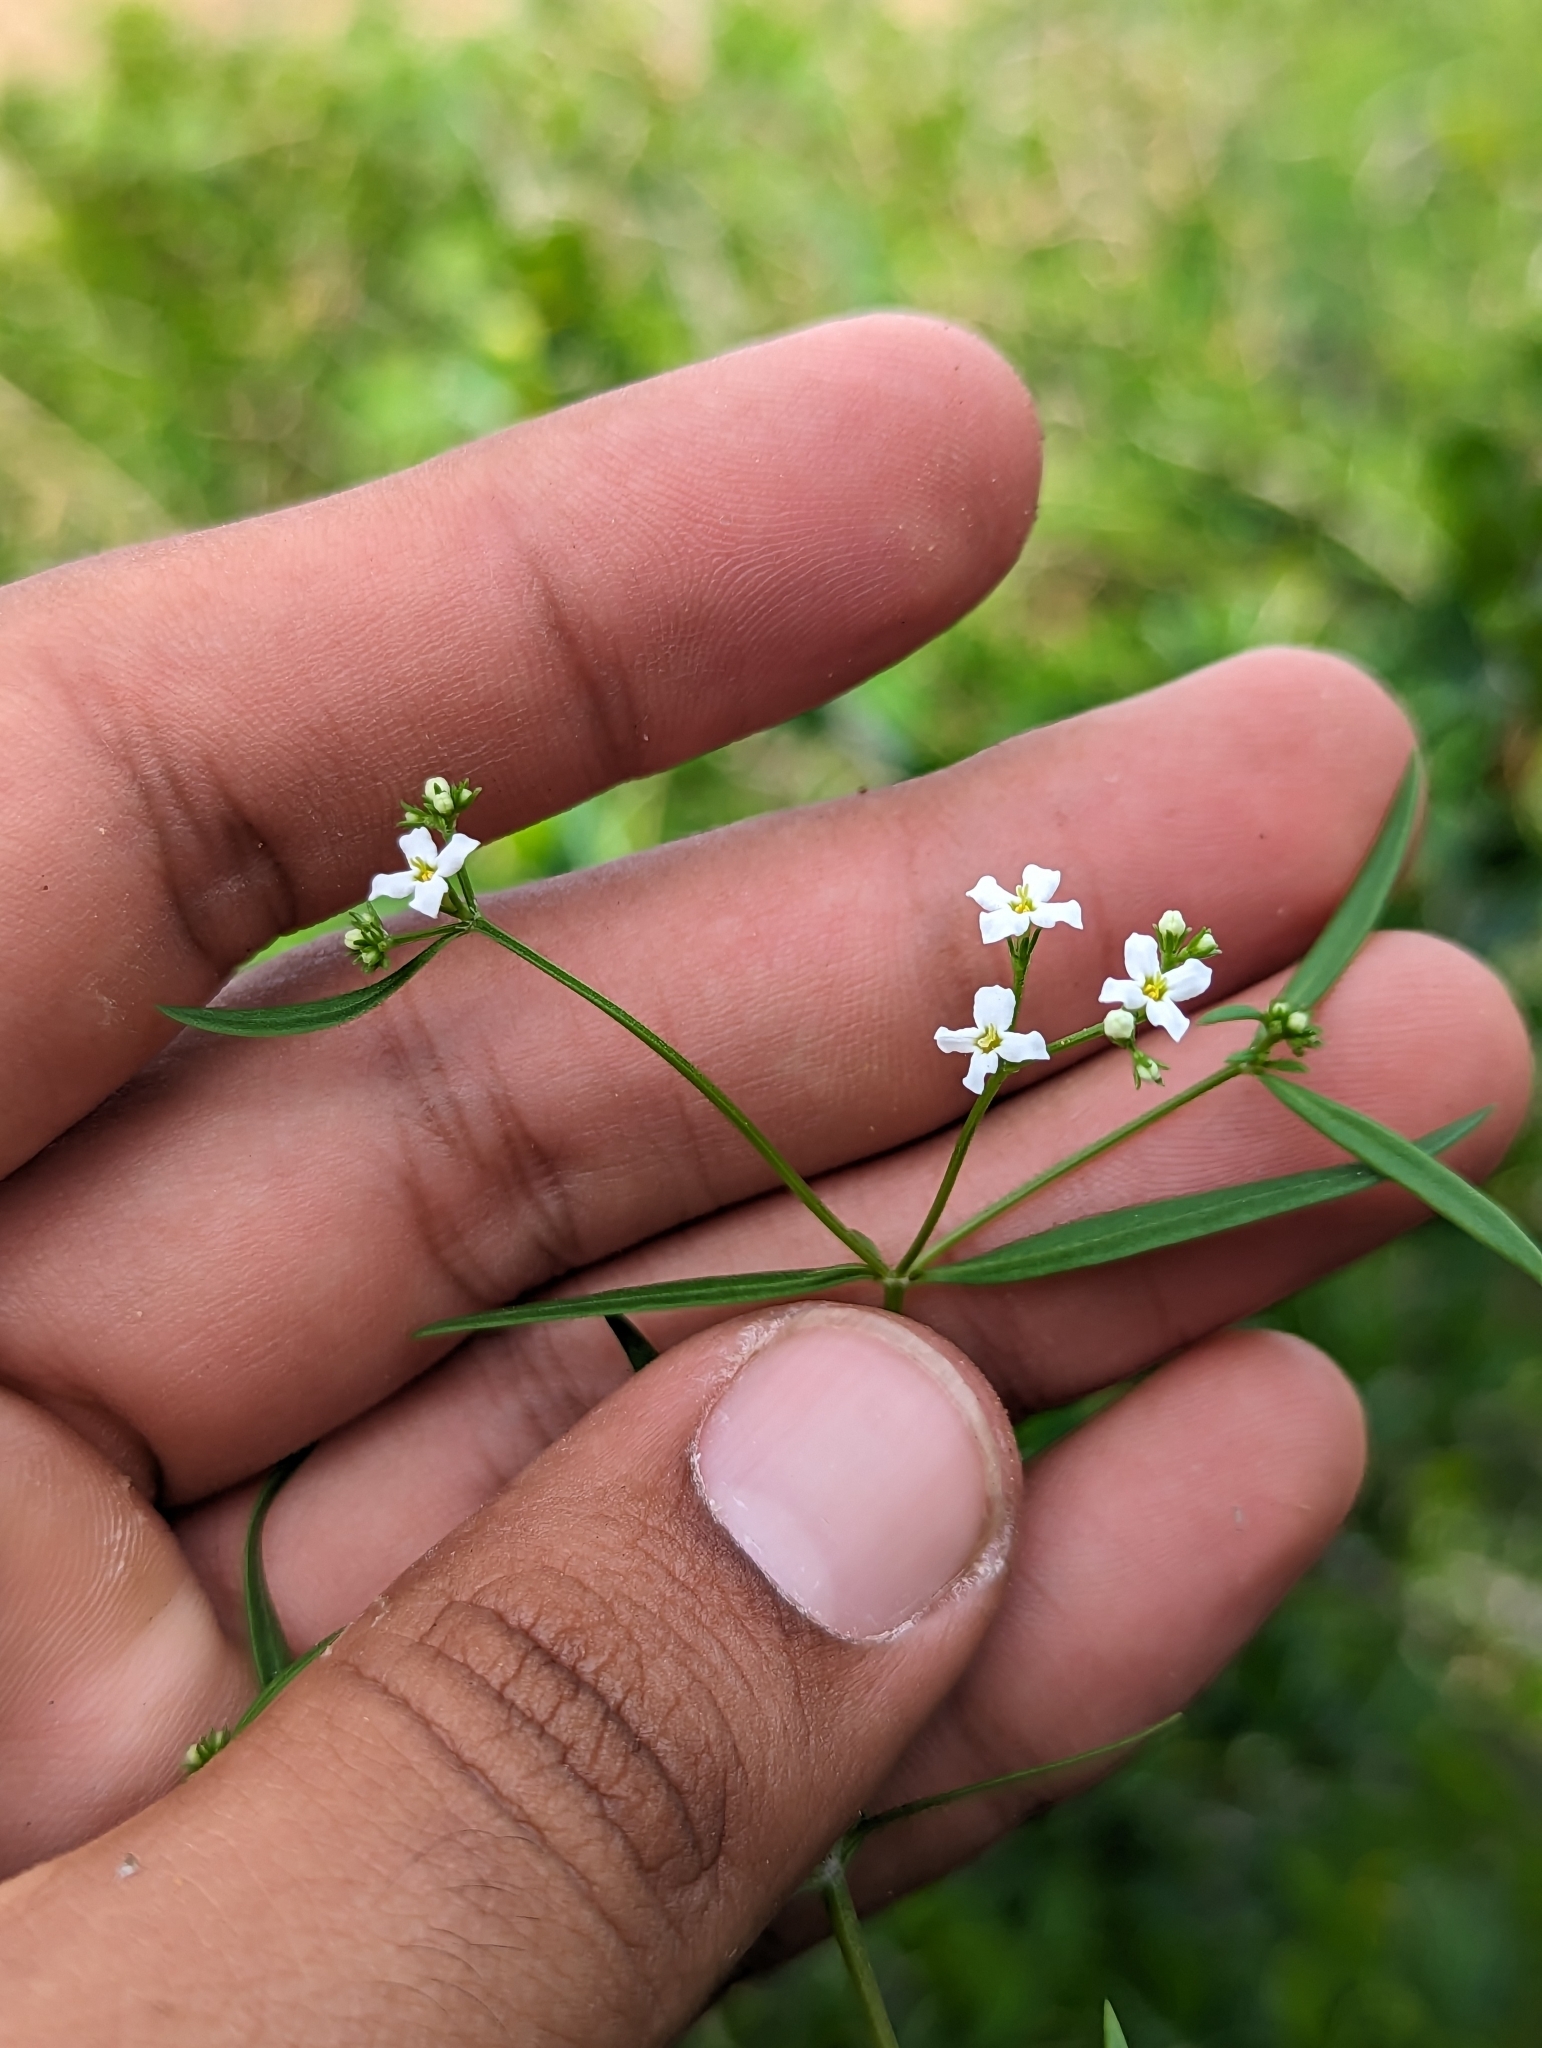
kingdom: Plantae
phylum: Tracheophyta
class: Magnoliopsida
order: Gentianales
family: Rubiaceae
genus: Stenotis
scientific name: Stenotis arenaria
